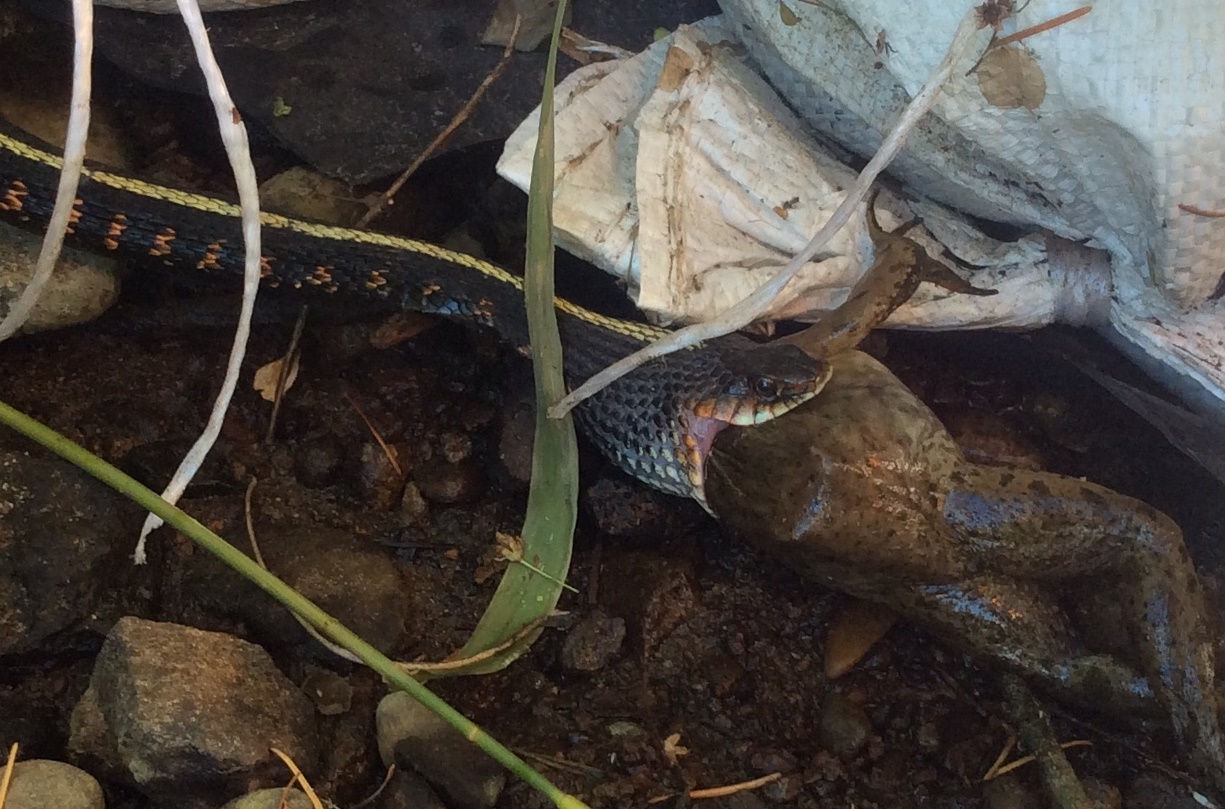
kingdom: Animalia
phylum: Chordata
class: Squamata
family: Colubridae
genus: Thamnophis
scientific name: Thamnophis sirtalis
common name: Common garter snake
